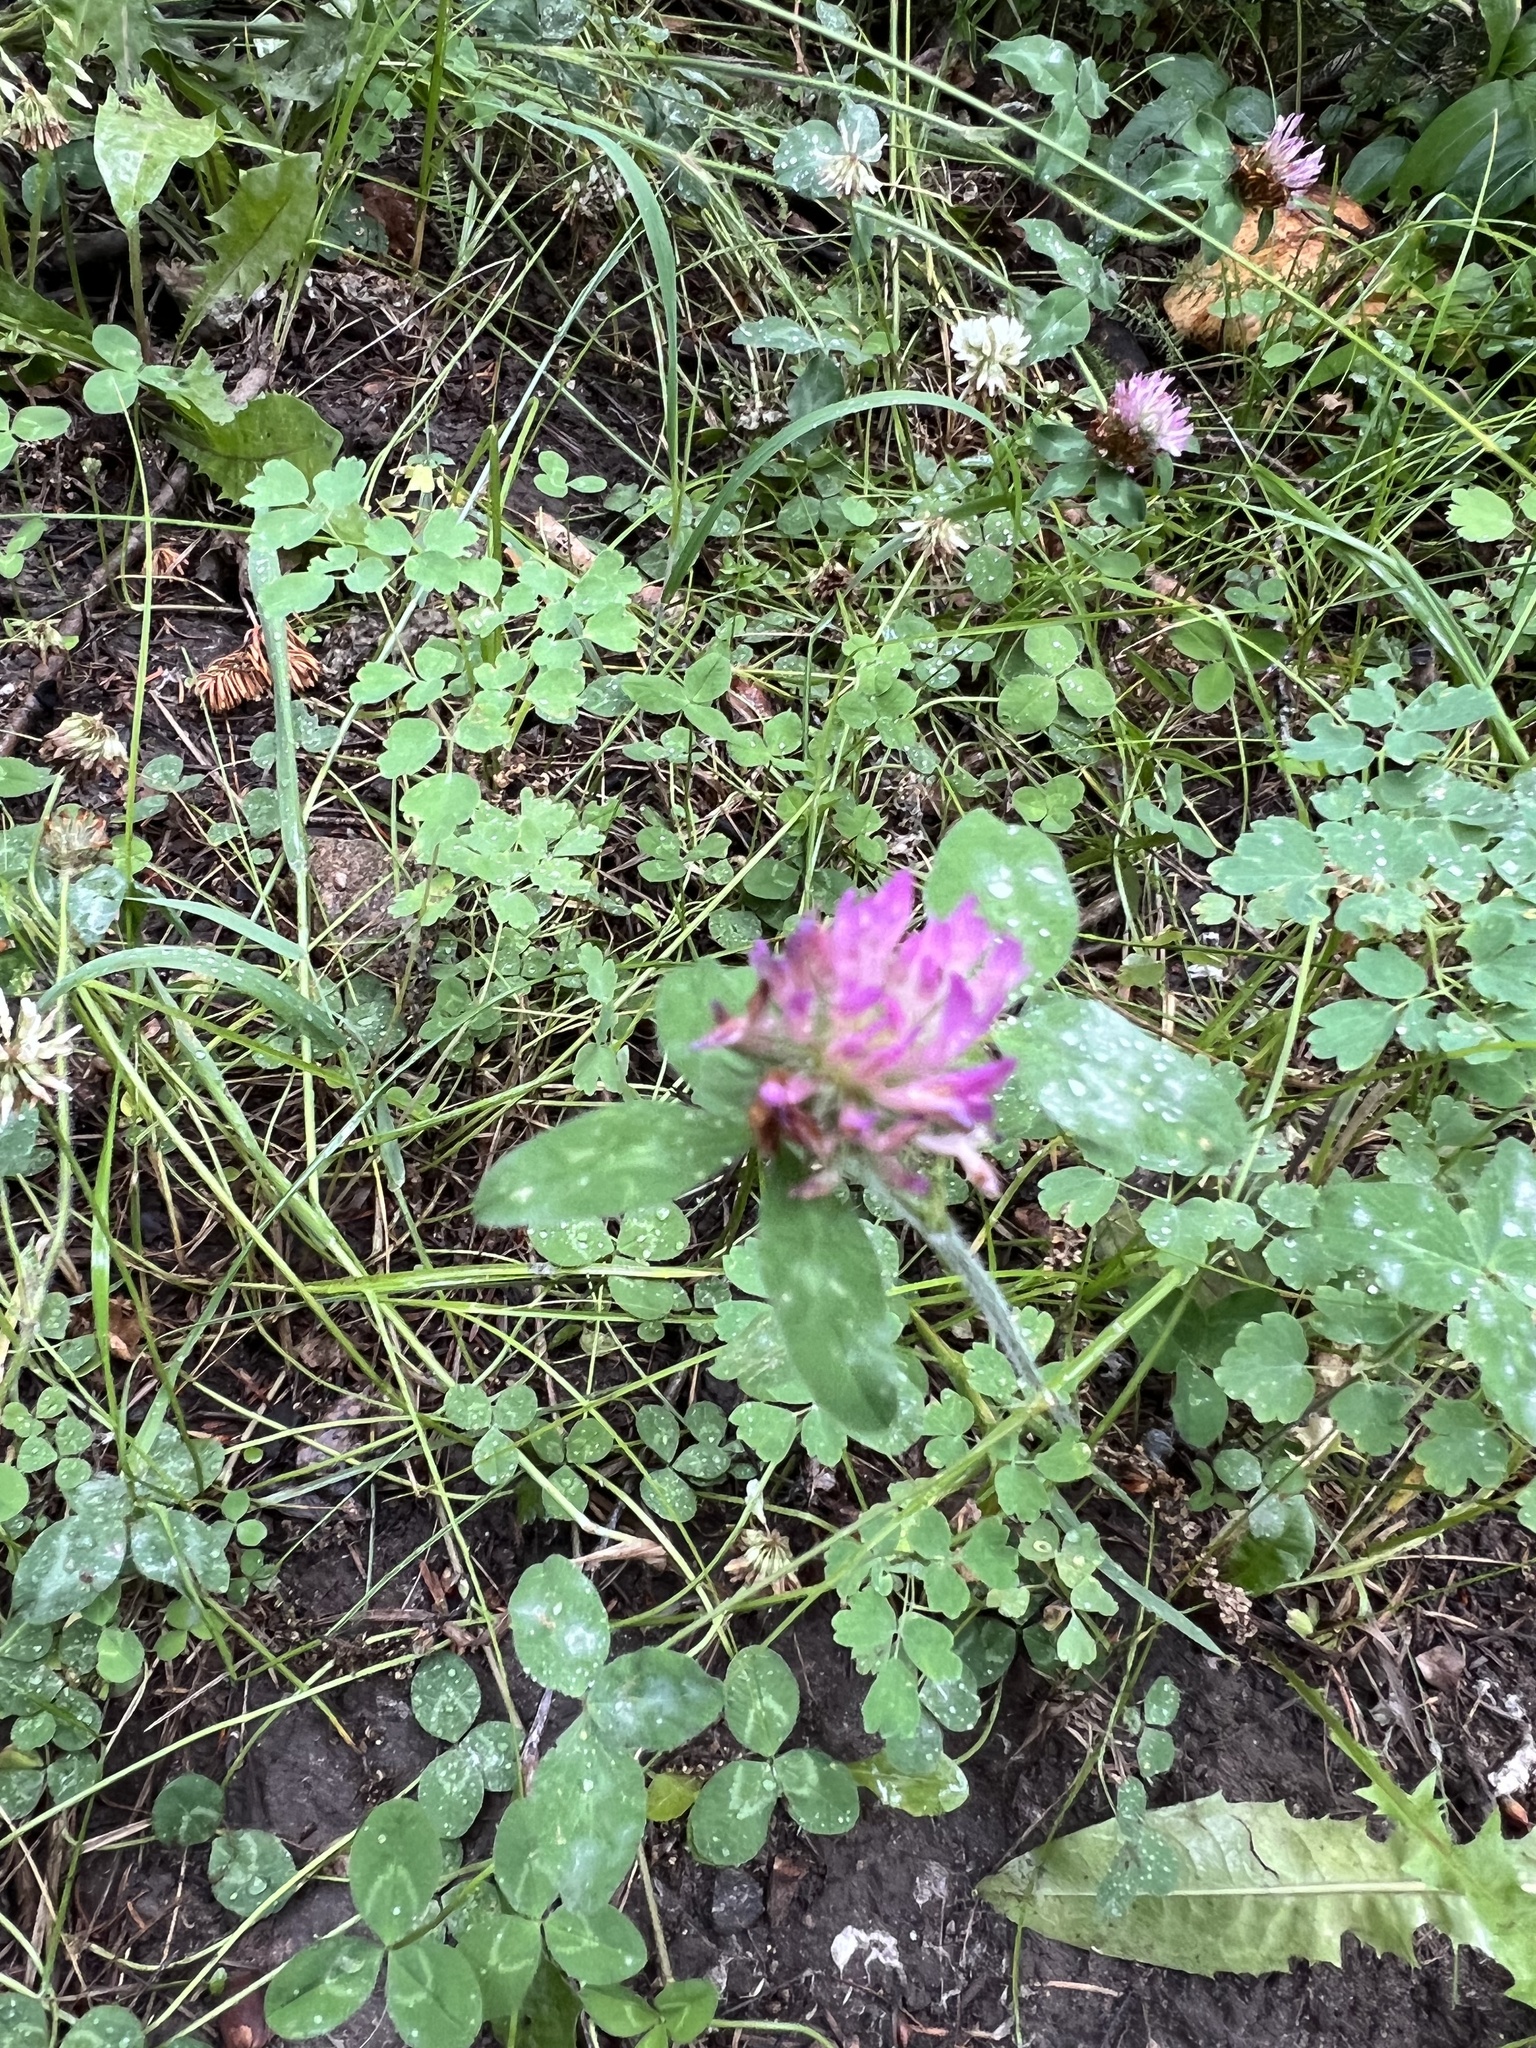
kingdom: Plantae
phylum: Tracheophyta
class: Magnoliopsida
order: Fabales
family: Fabaceae
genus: Trifolium
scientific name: Trifolium pratense
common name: Red clover
